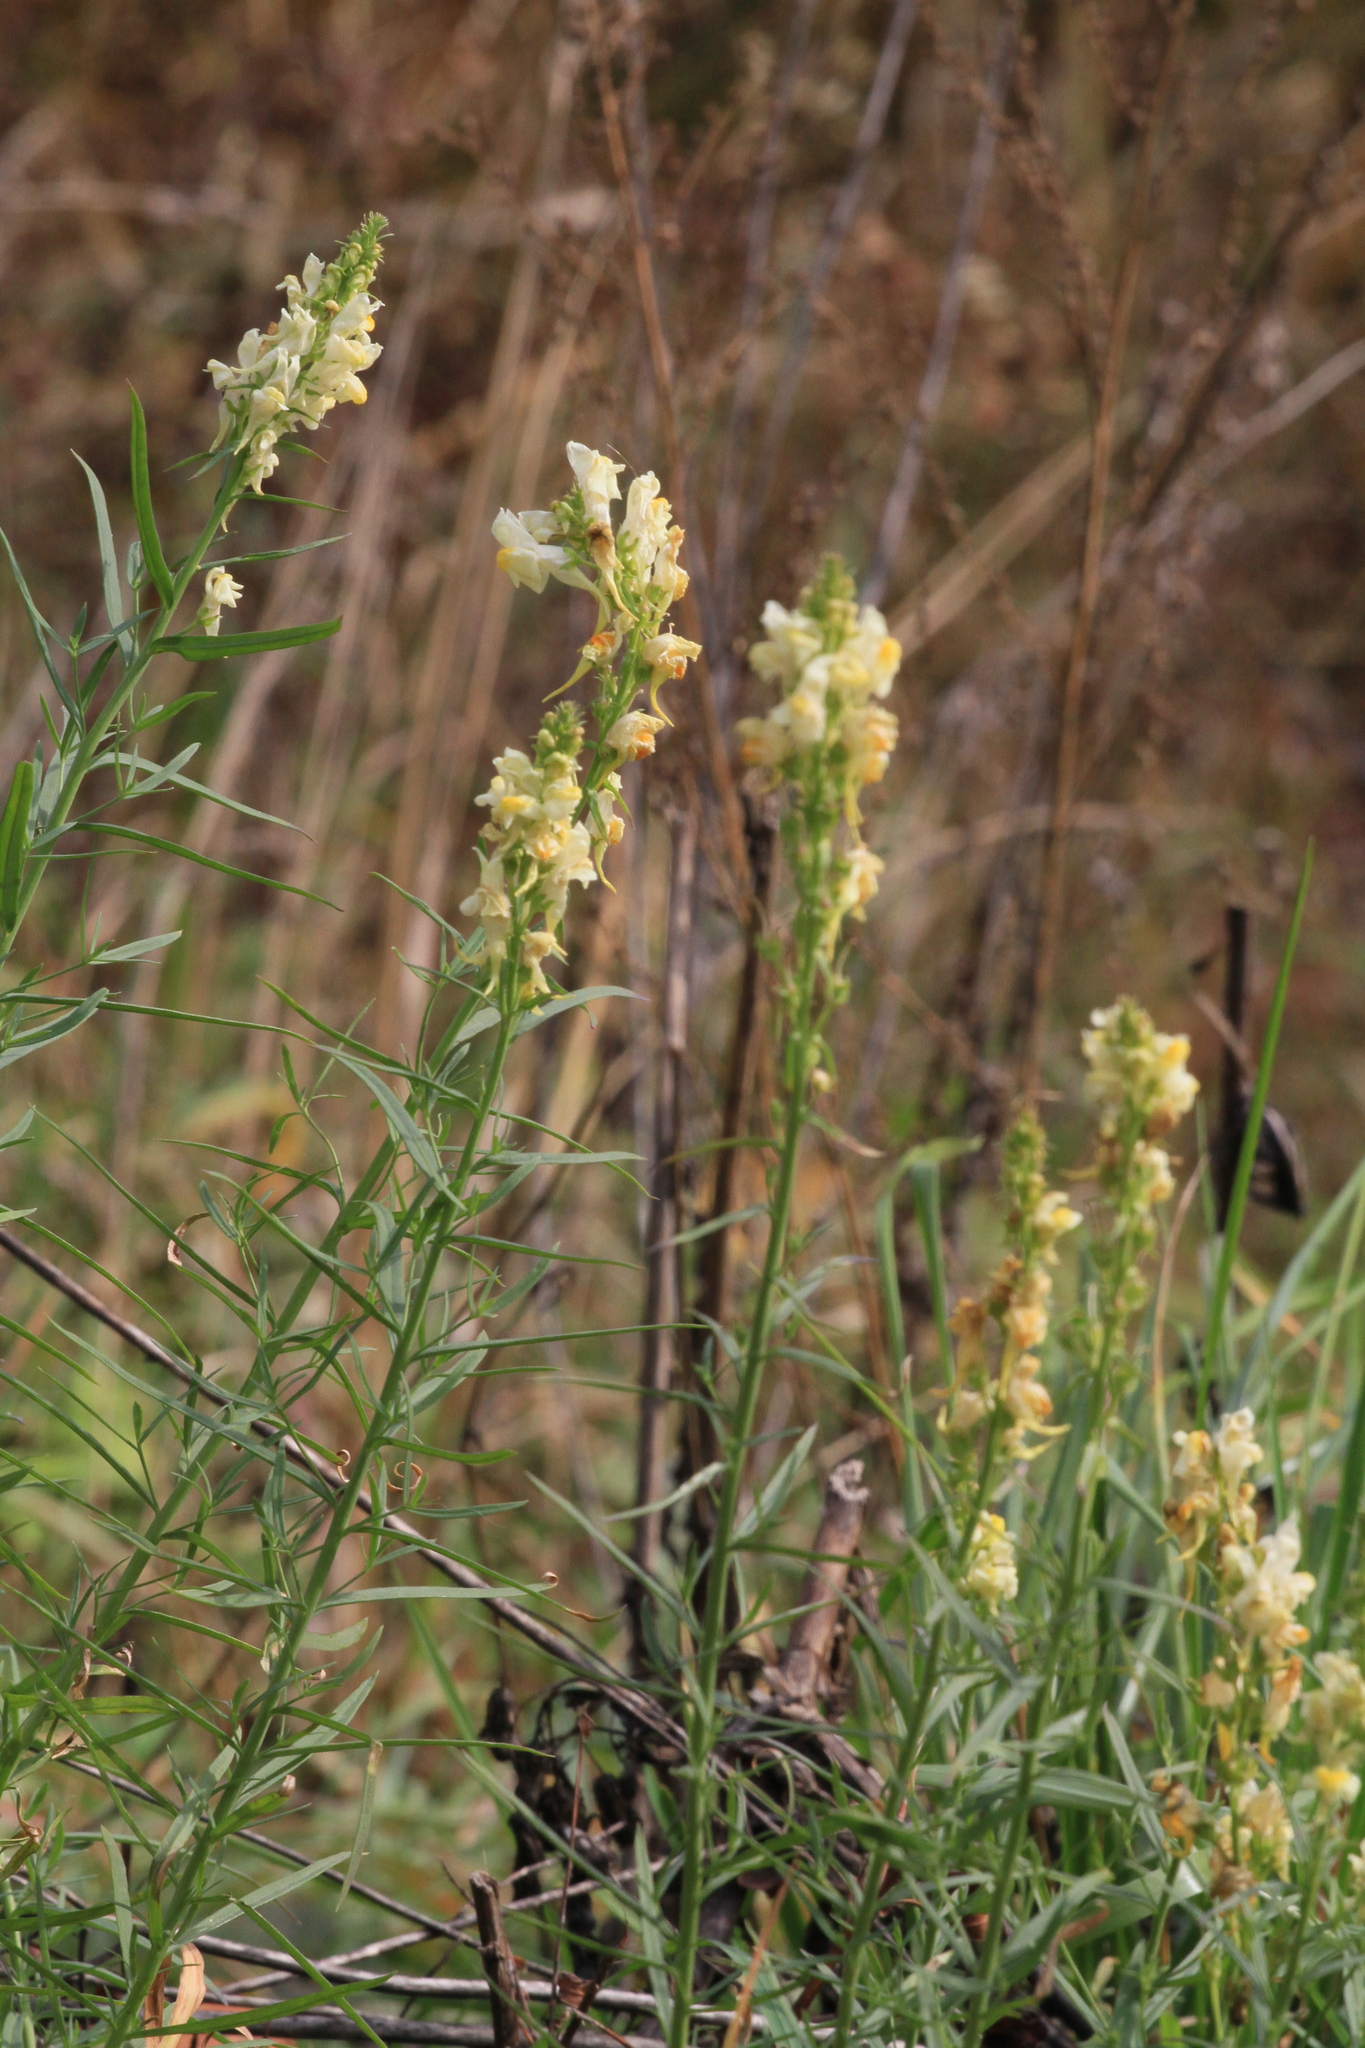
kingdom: Plantae
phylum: Tracheophyta
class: Magnoliopsida
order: Lamiales
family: Plantaginaceae
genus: Linaria
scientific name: Linaria vulgaris
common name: Butter and eggs
